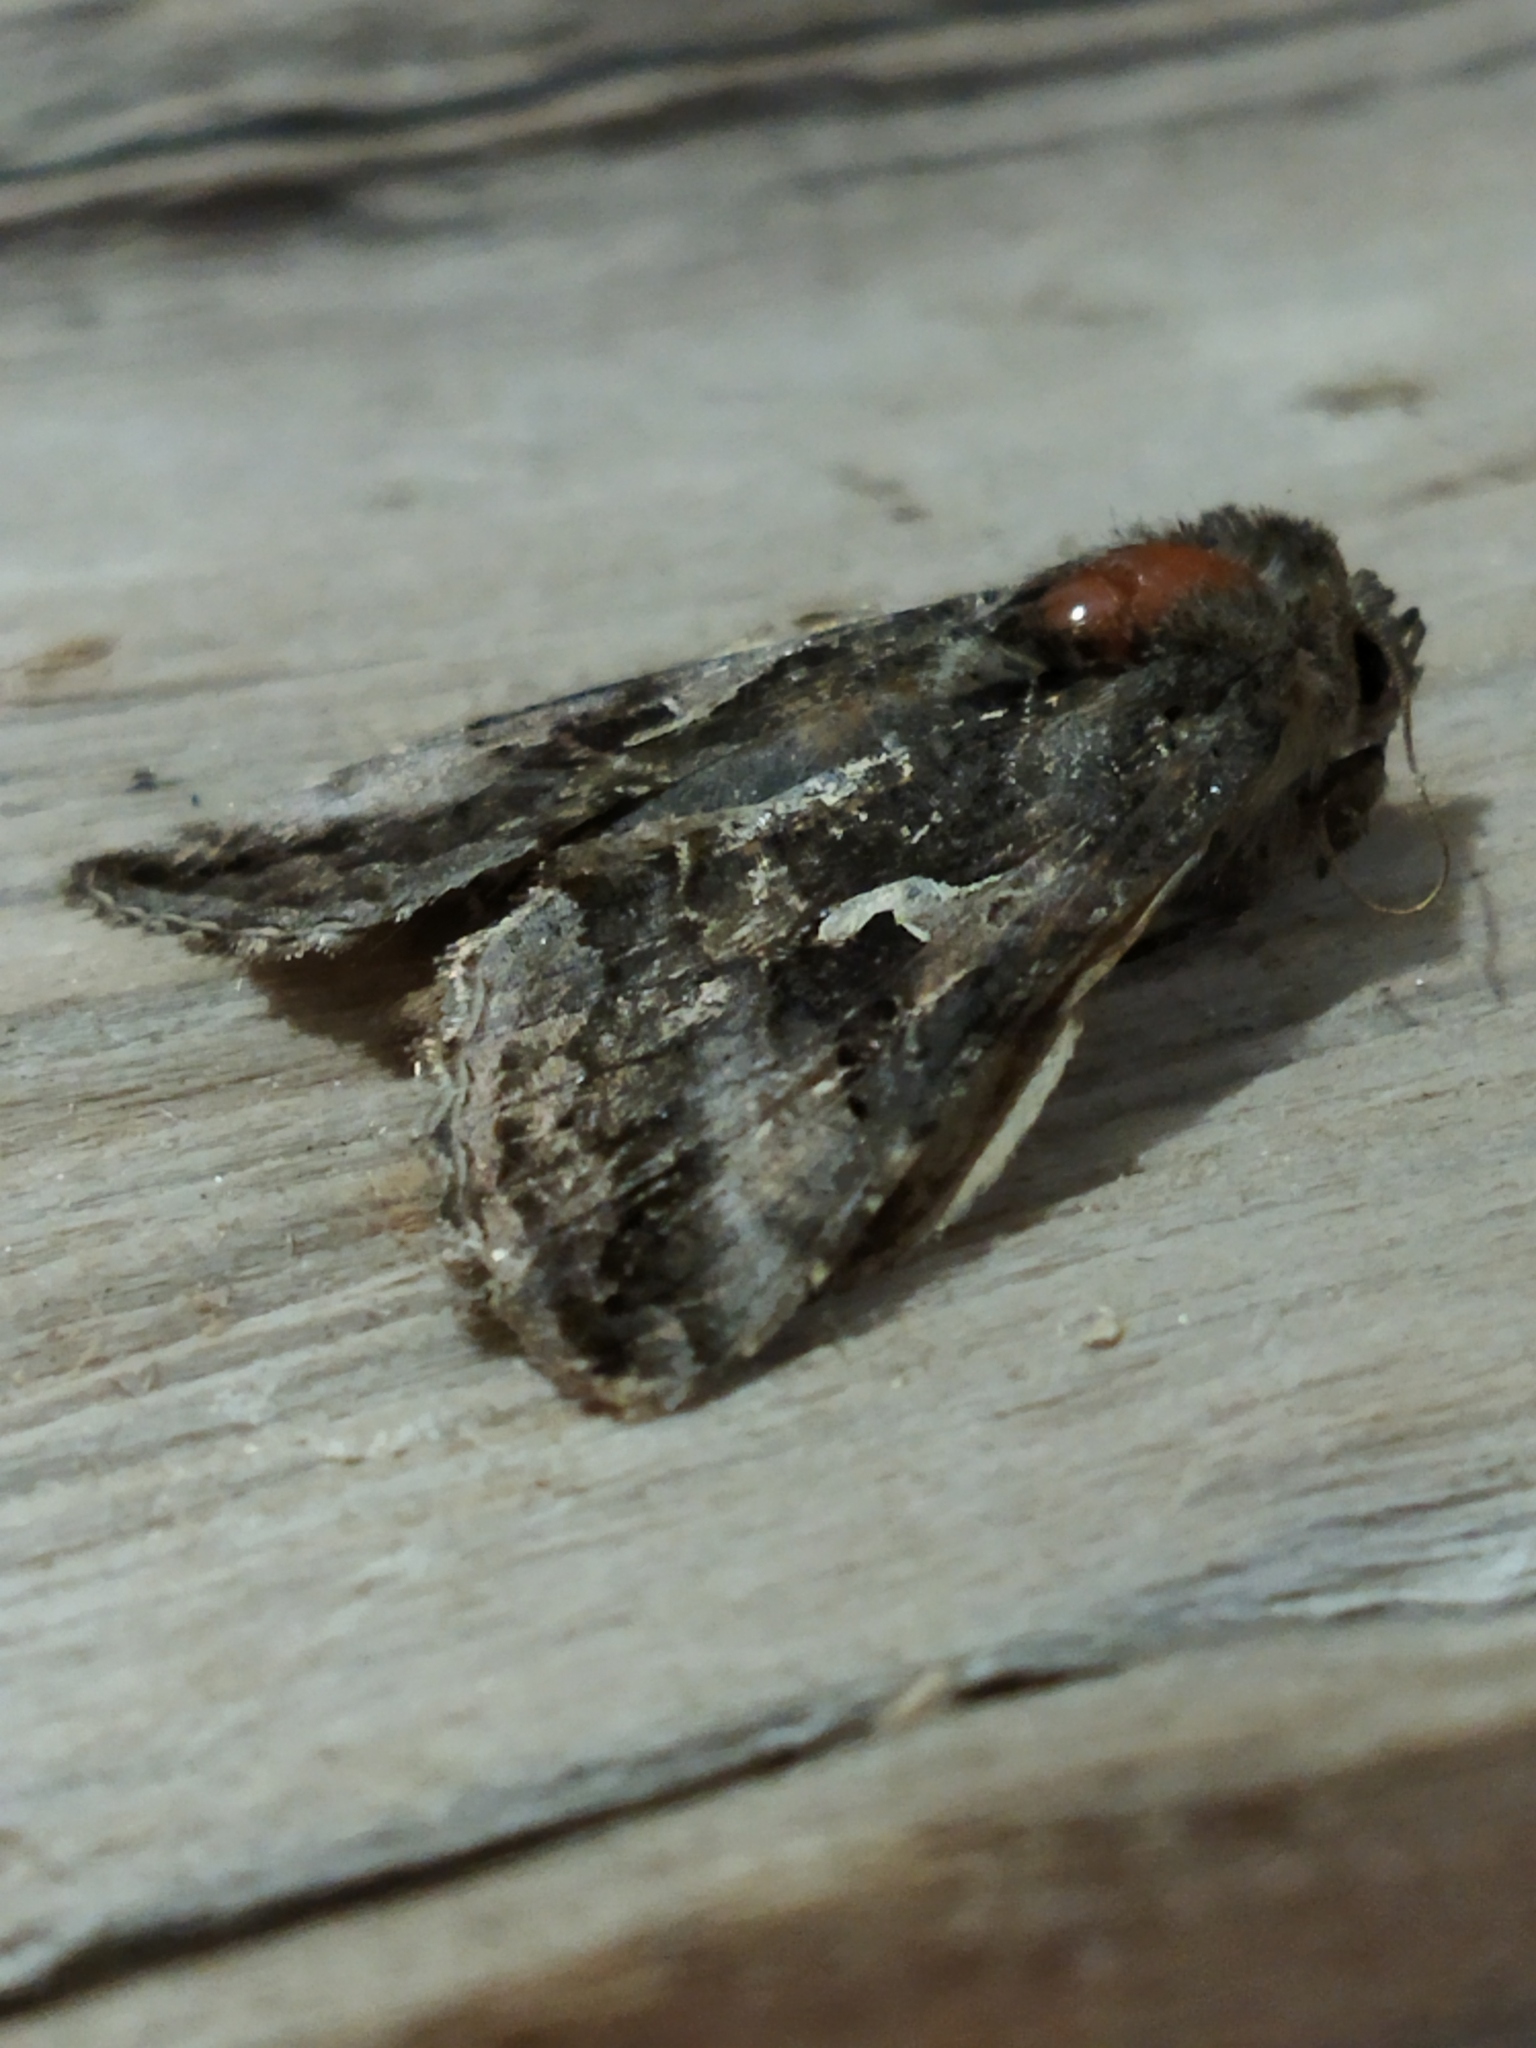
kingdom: Animalia
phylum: Arthropoda
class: Insecta
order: Lepidoptera
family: Noctuidae
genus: Autographa
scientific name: Autographa gamma
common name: Silver y
